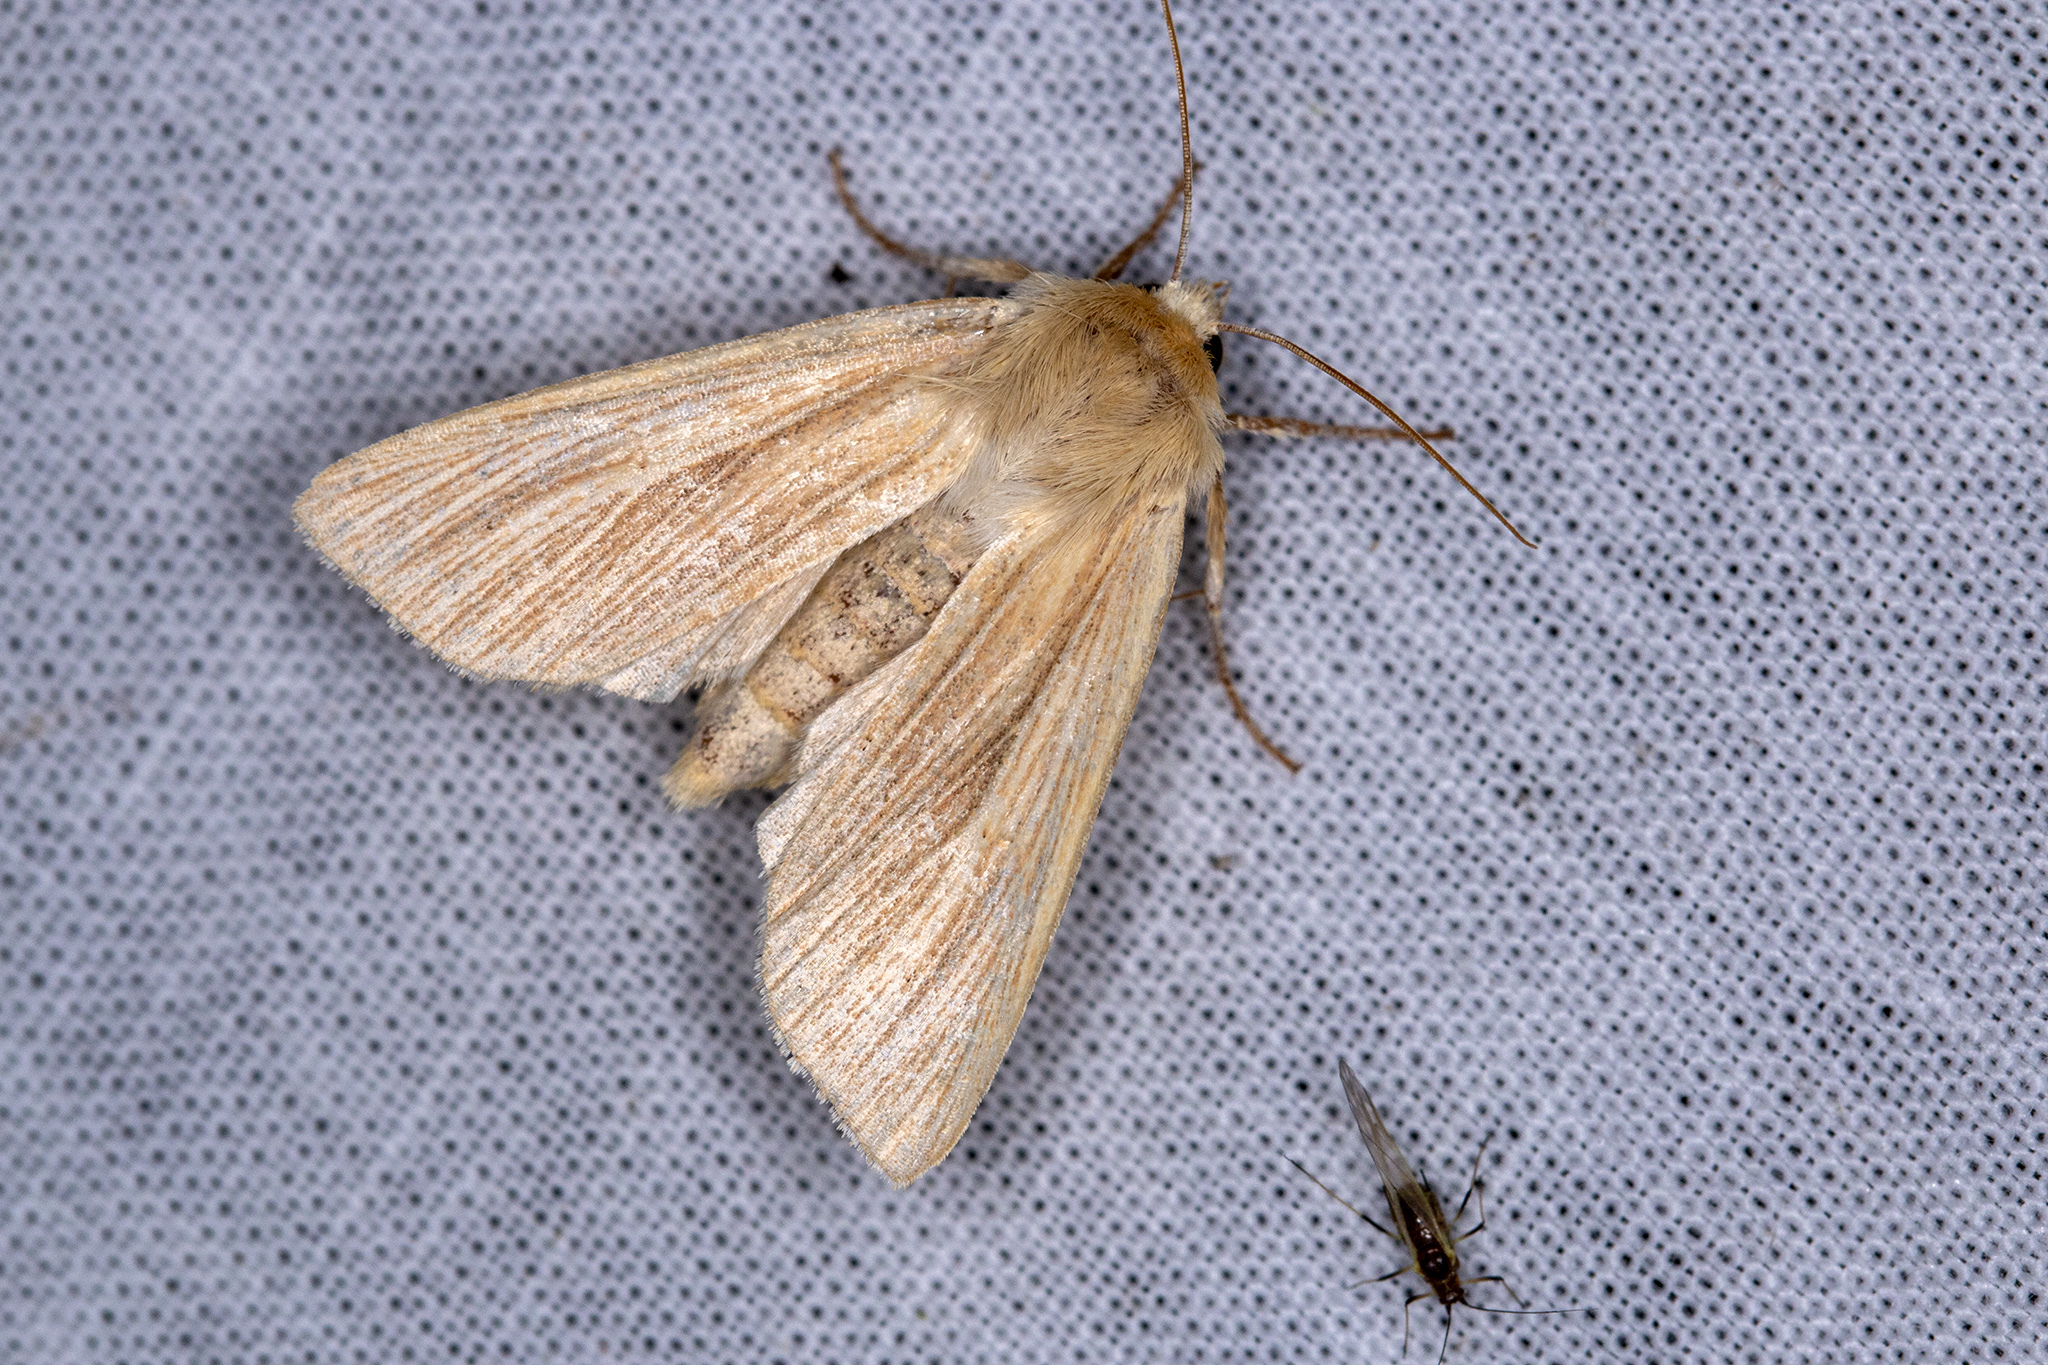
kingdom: Animalia
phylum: Arthropoda
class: Insecta
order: Lepidoptera
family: Noctuidae
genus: Mythimna
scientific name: Mythimna pallens
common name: Common wainscot
